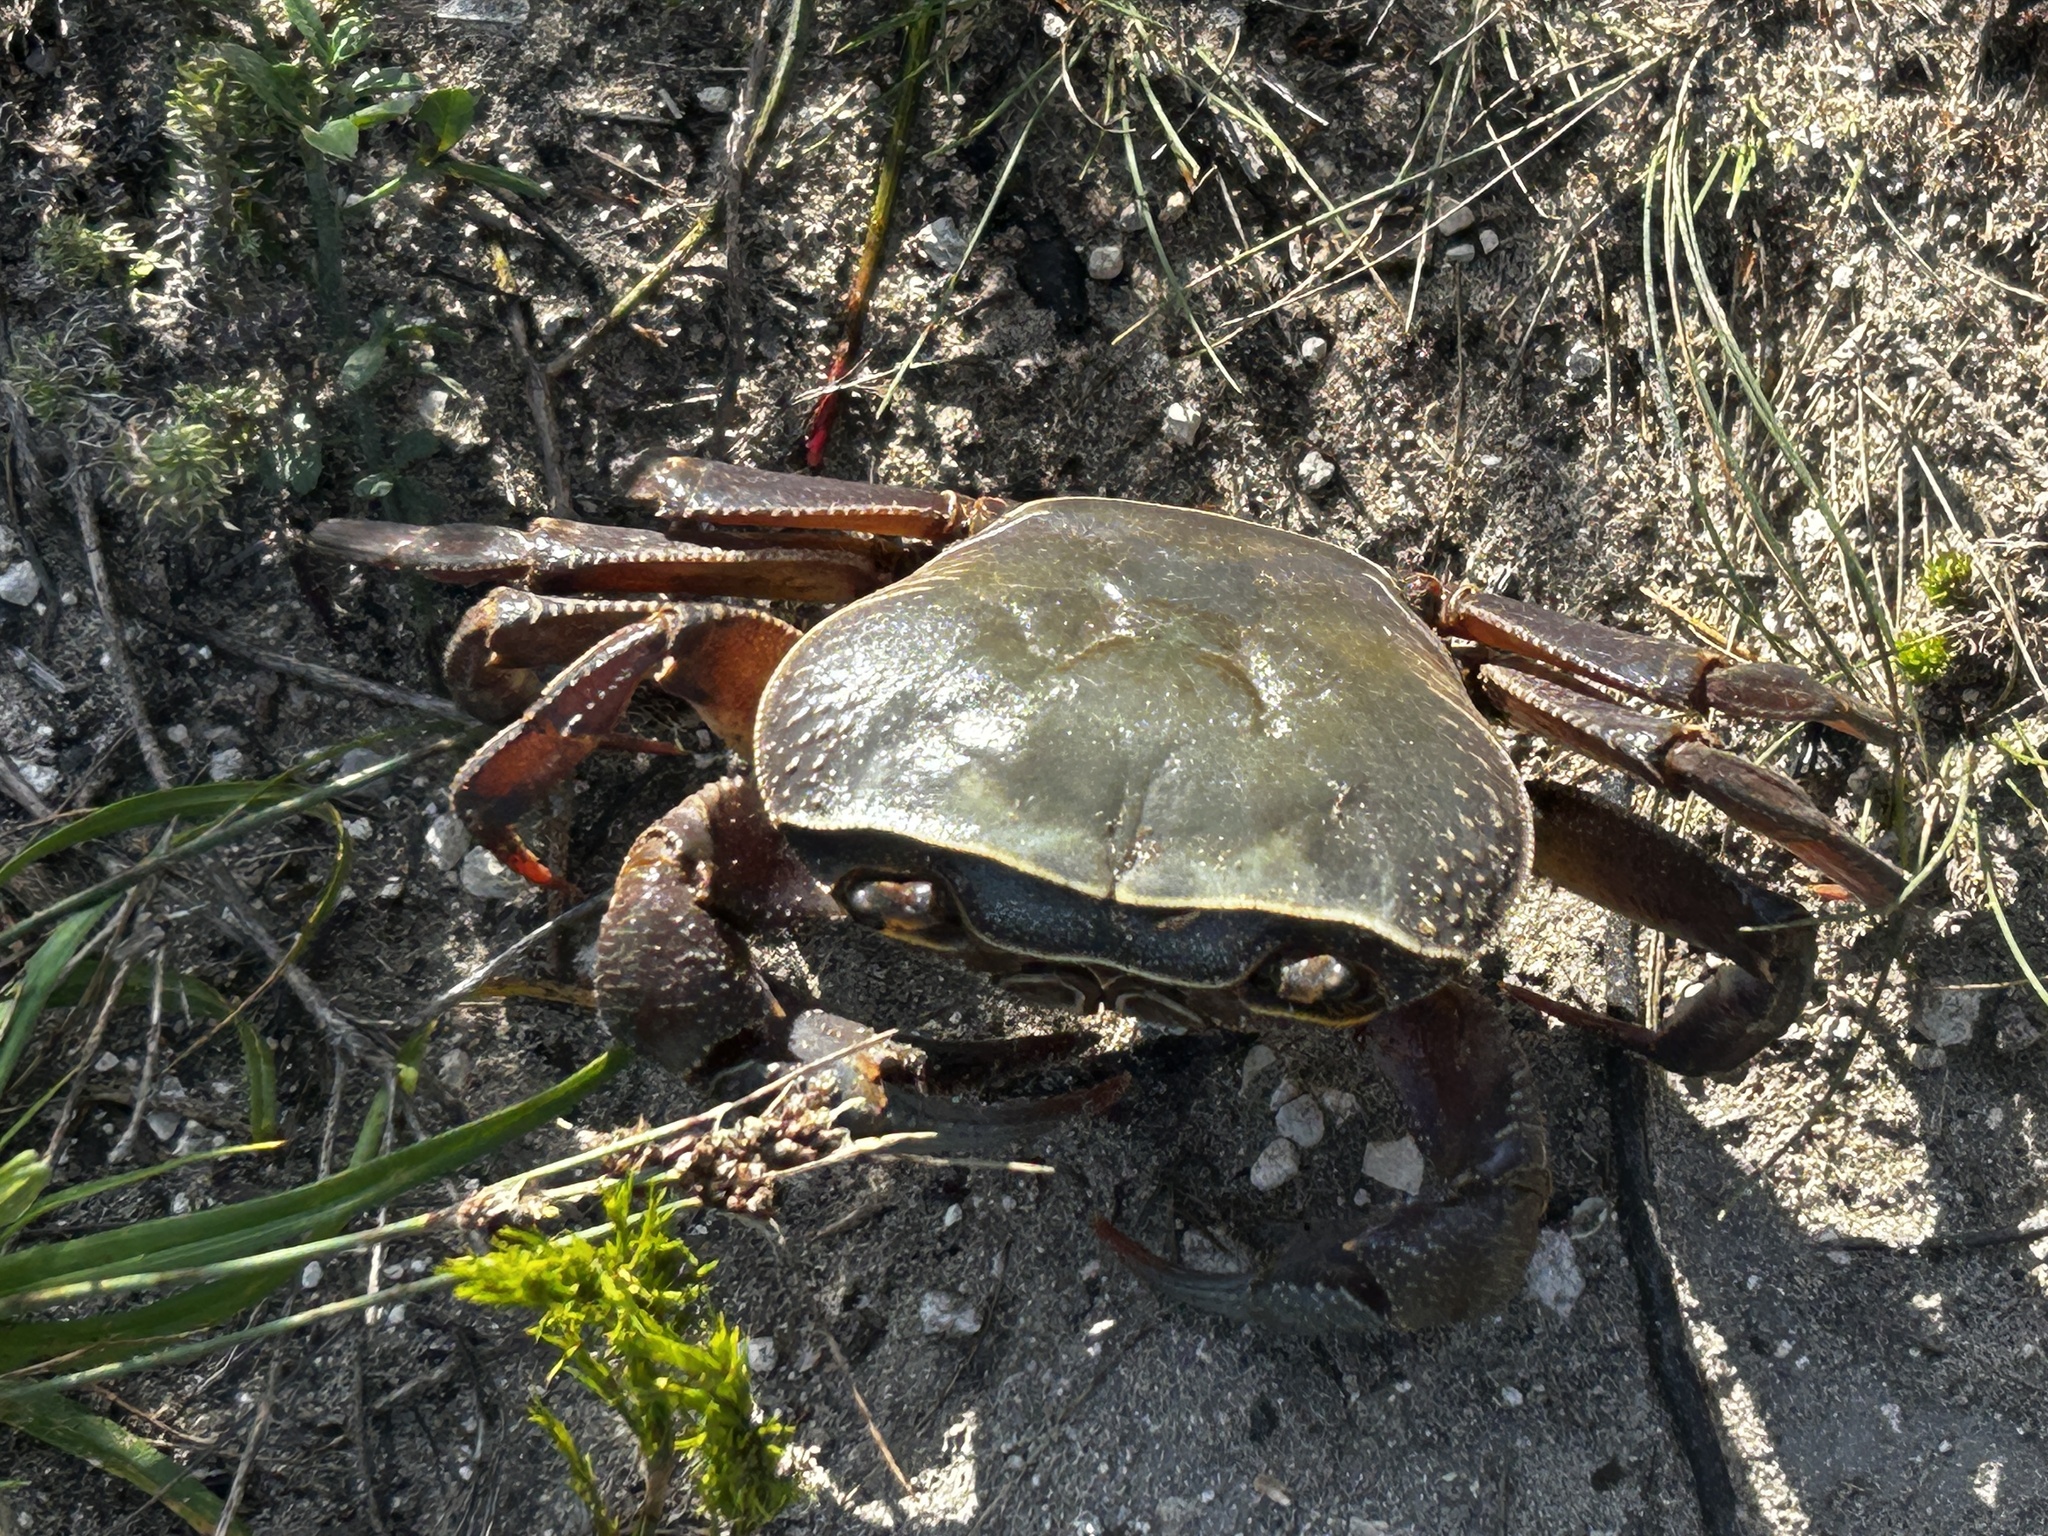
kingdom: Animalia
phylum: Arthropoda
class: Malacostraca
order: Decapoda
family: Potamonautidae
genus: Potamonautes
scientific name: Potamonautes barnardi
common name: Barnard's crab
